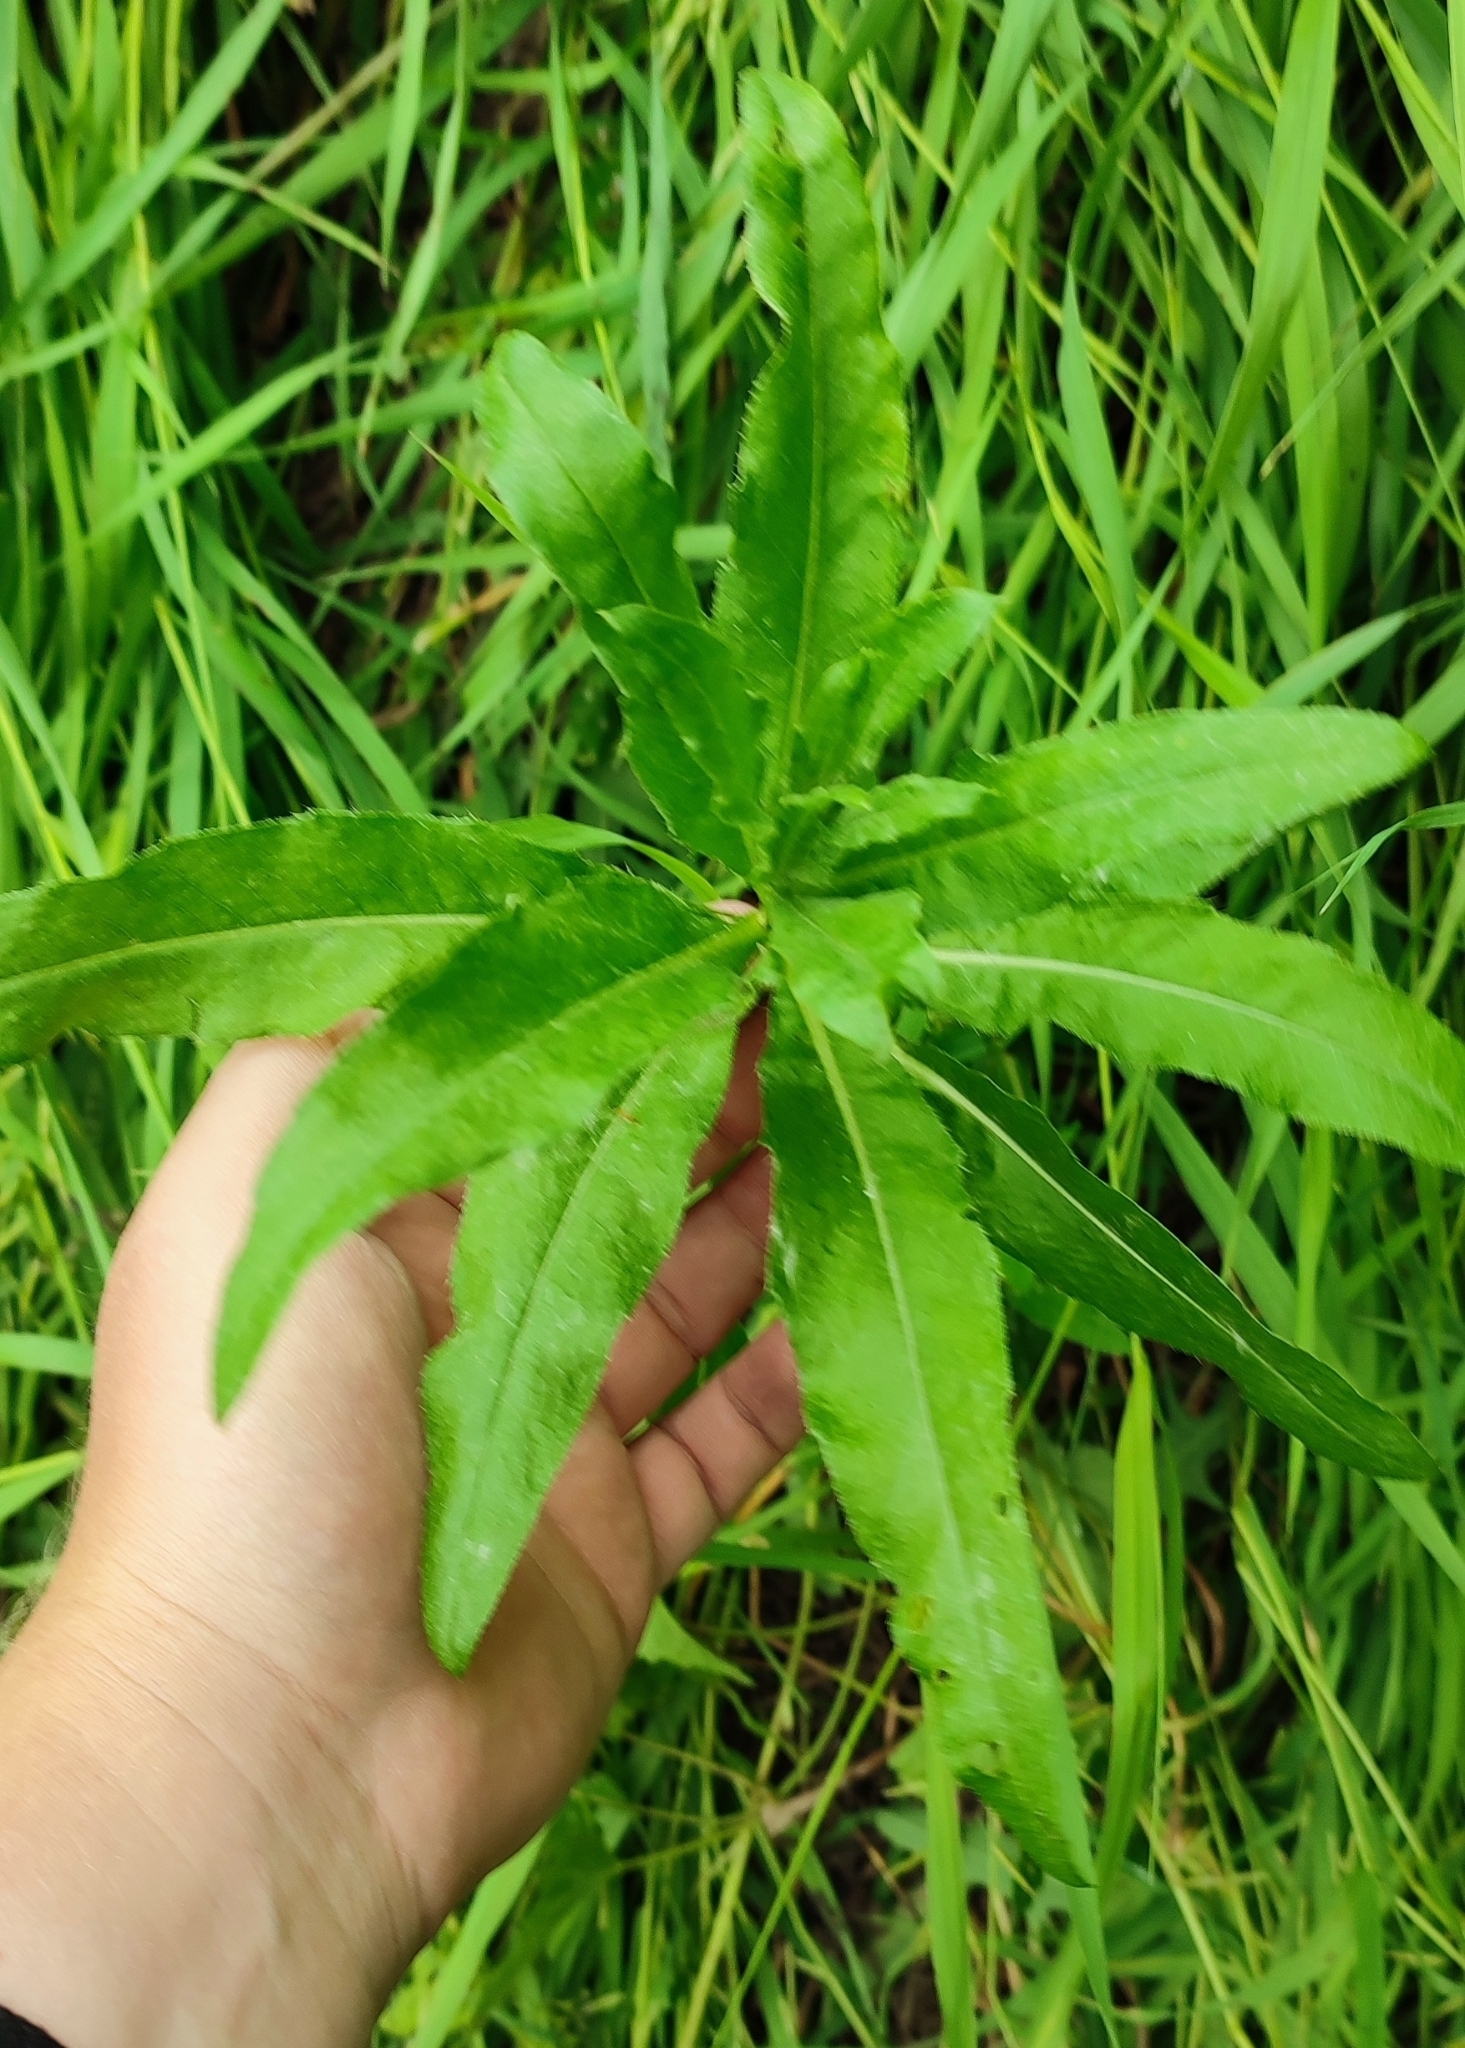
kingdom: Plantae
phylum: Tracheophyta
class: Magnoliopsida
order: Asterales
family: Asteraceae
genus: Cirsium
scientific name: Cirsium arvense
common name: Creeping thistle
